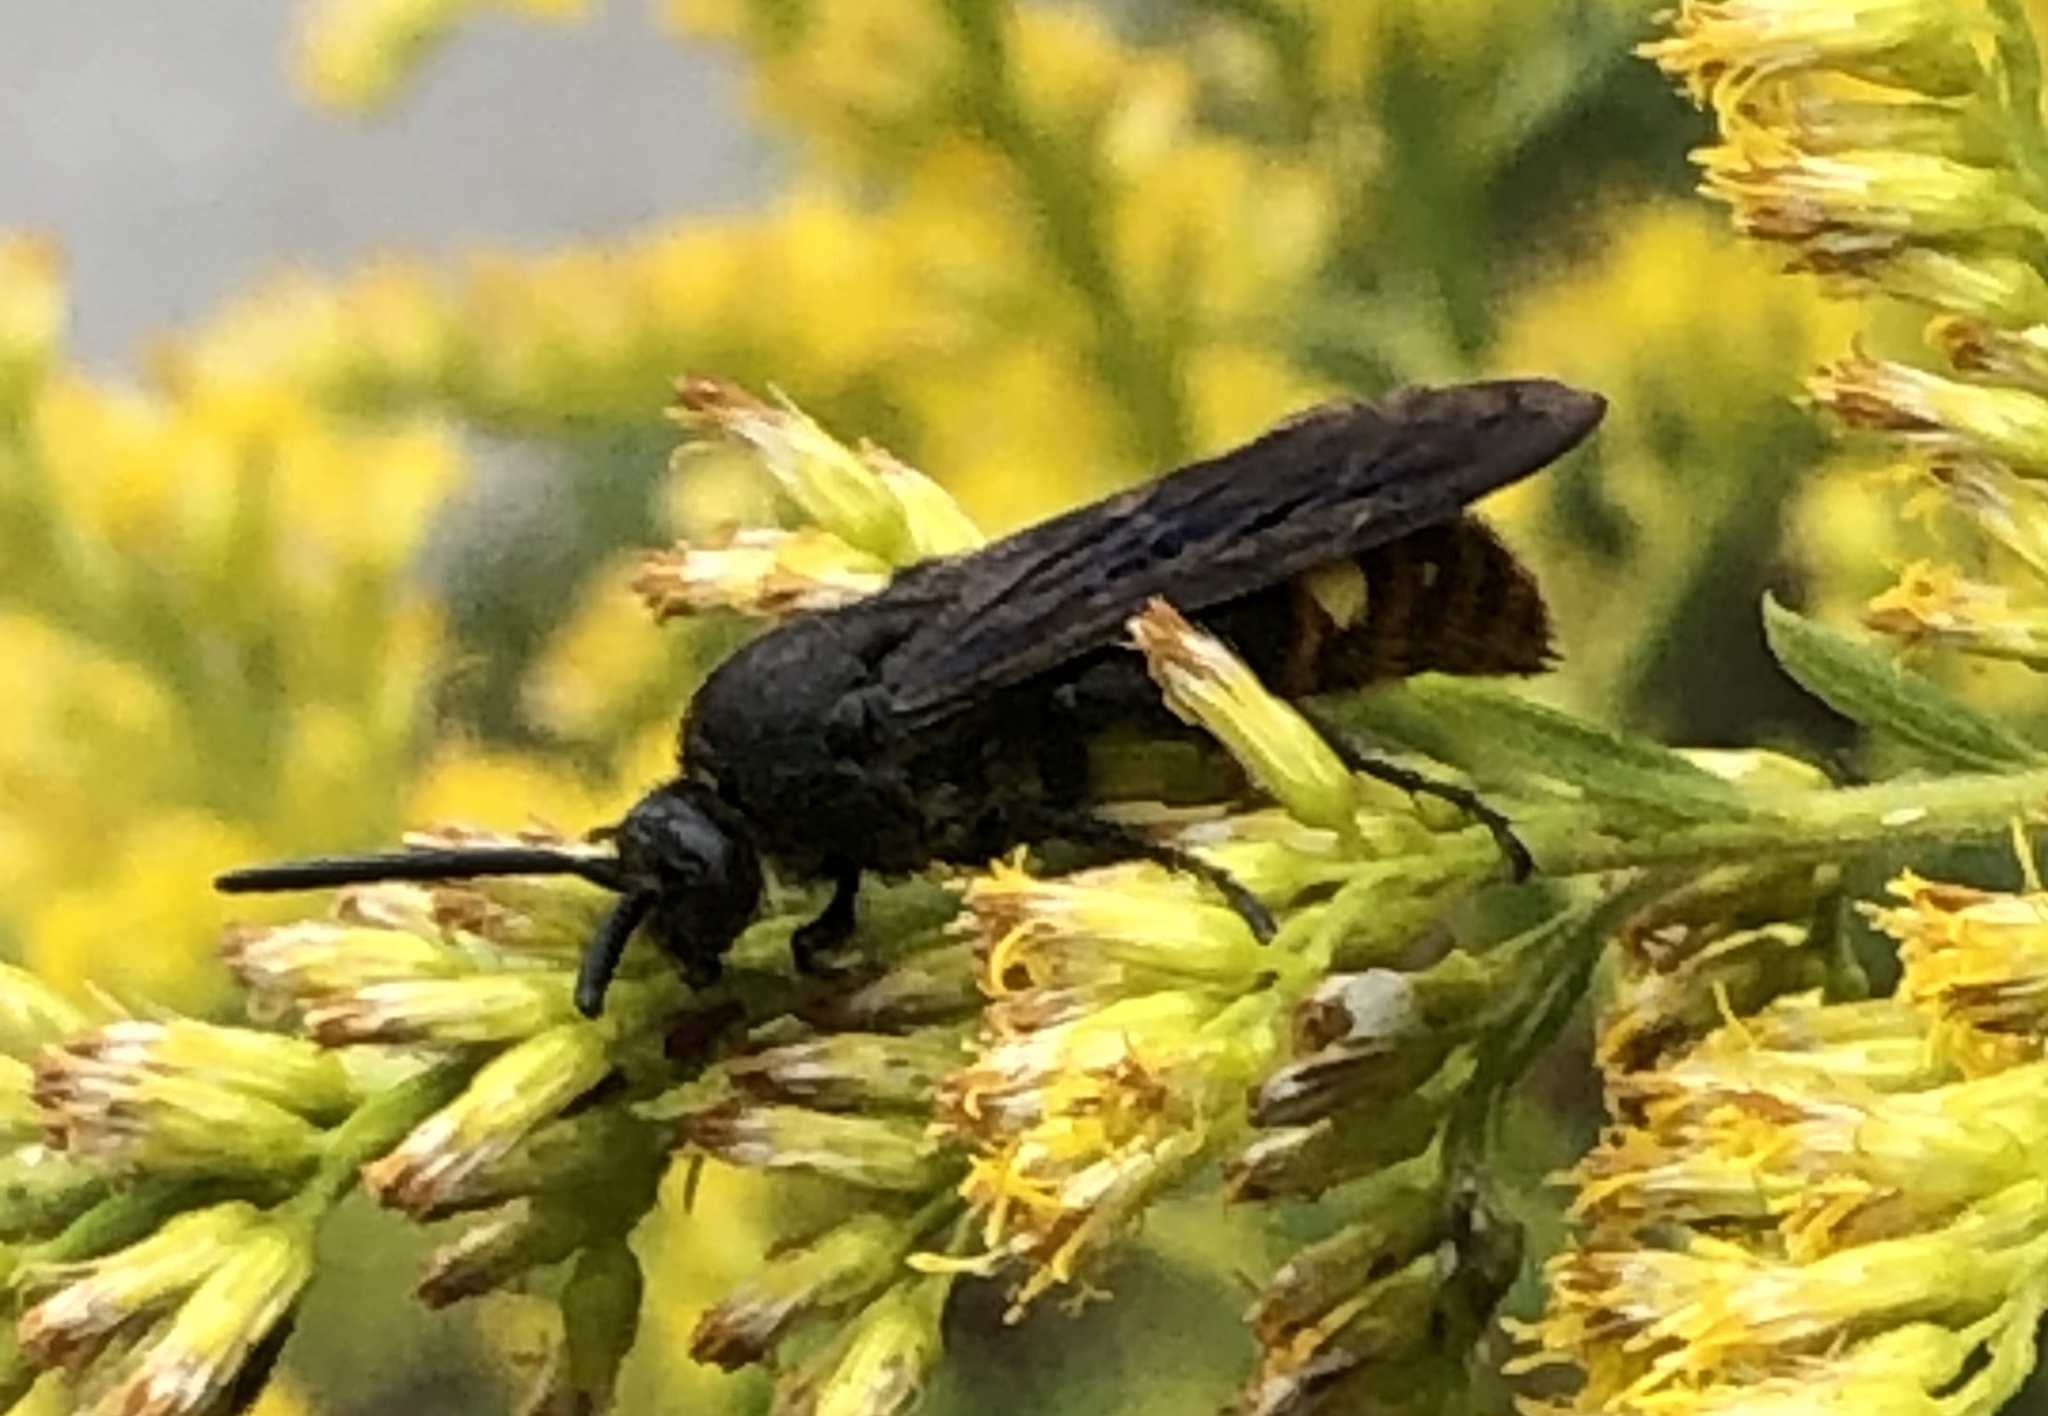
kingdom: Animalia
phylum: Arthropoda
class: Insecta
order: Hymenoptera
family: Scoliidae
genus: Scolia
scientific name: Scolia dubia
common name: Blue-winged scoliid wasp
